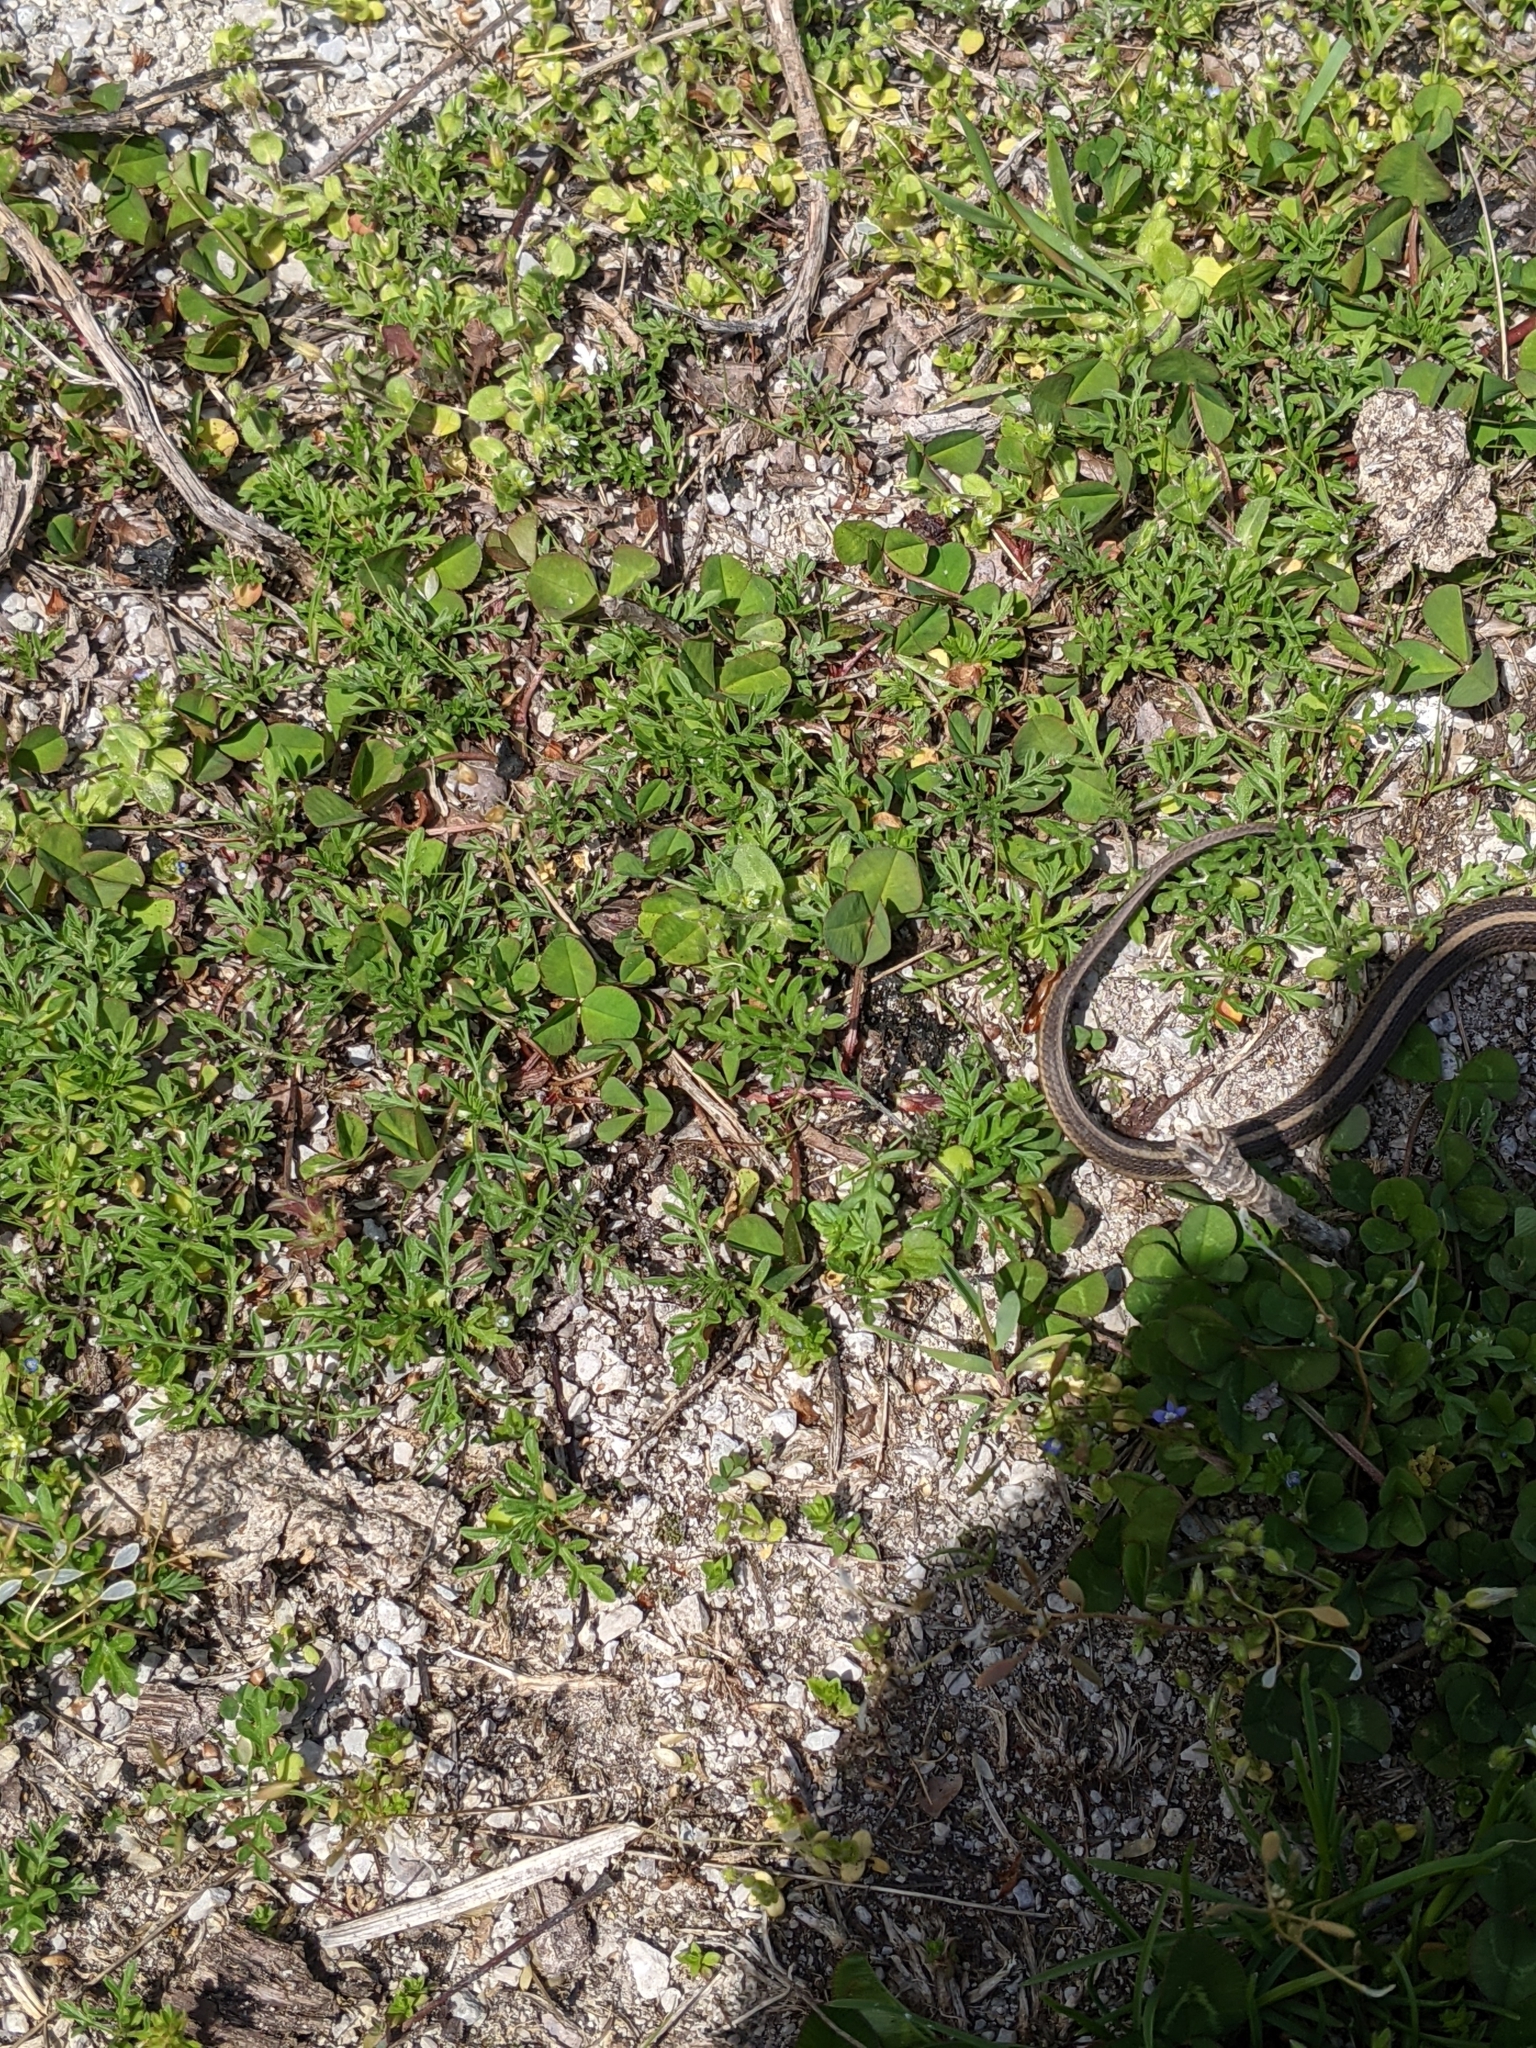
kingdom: Animalia
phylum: Chordata
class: Squamata
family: Colubridae
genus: Thamnophis
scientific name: Thamnophis sirtalis
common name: Common garter snake
